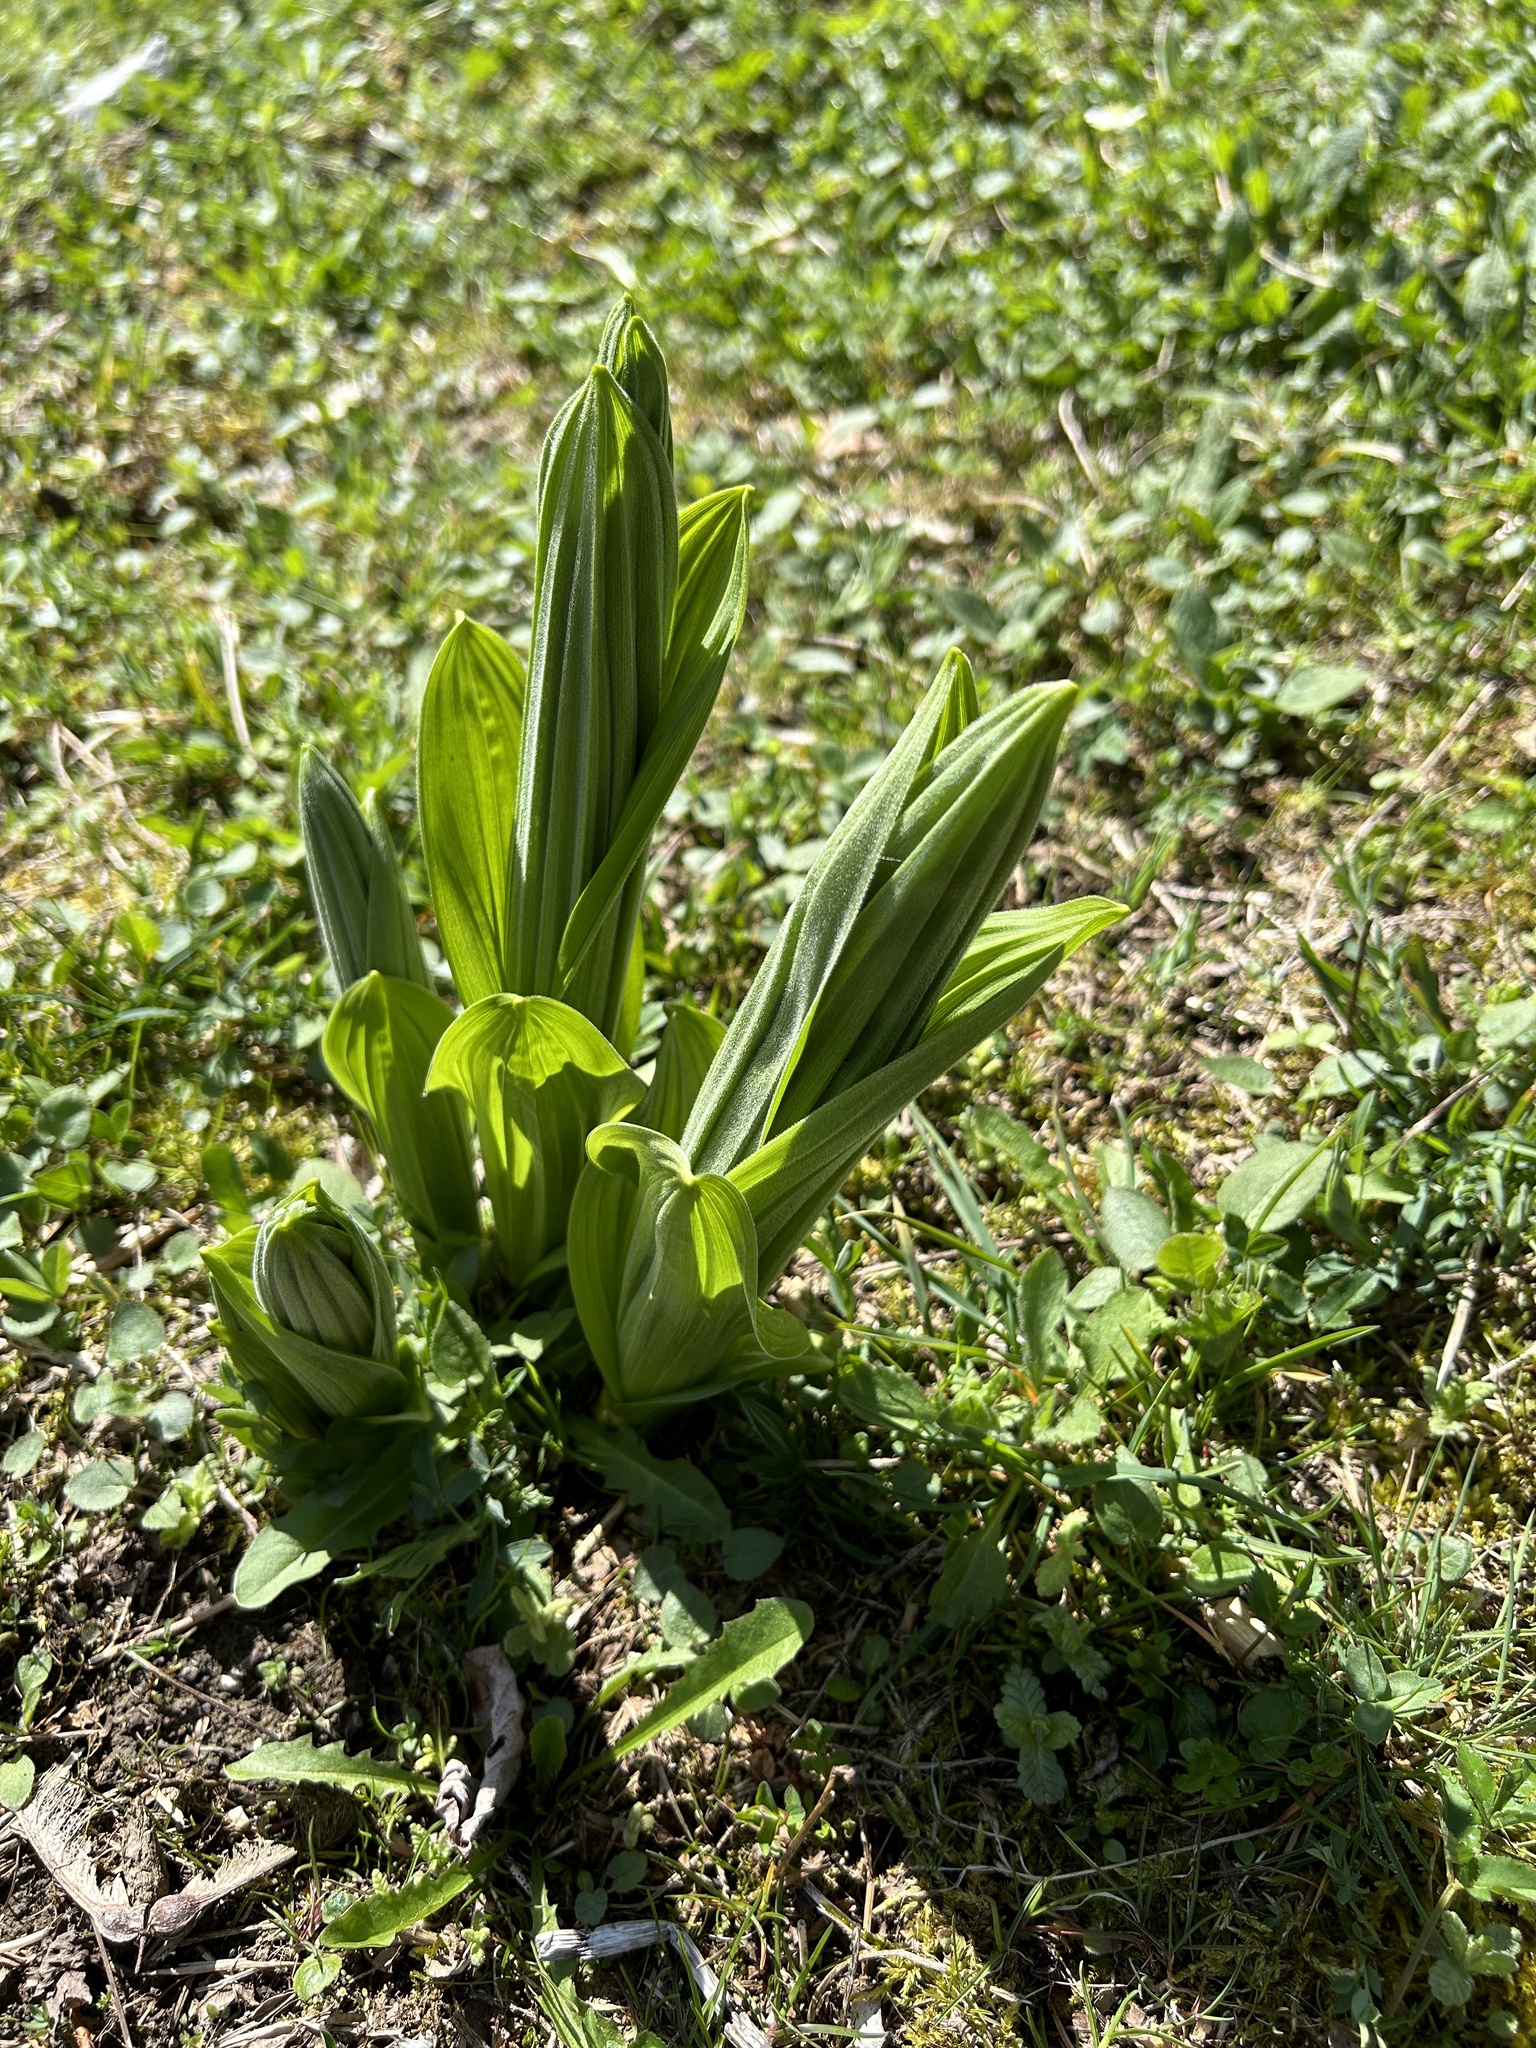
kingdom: Plantae
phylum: Tracheophyta
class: Liliopsida
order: Asparagales
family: Orchidaceae
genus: Cypripedium
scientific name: Cypripedium calceolus
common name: Lady's-slipper
